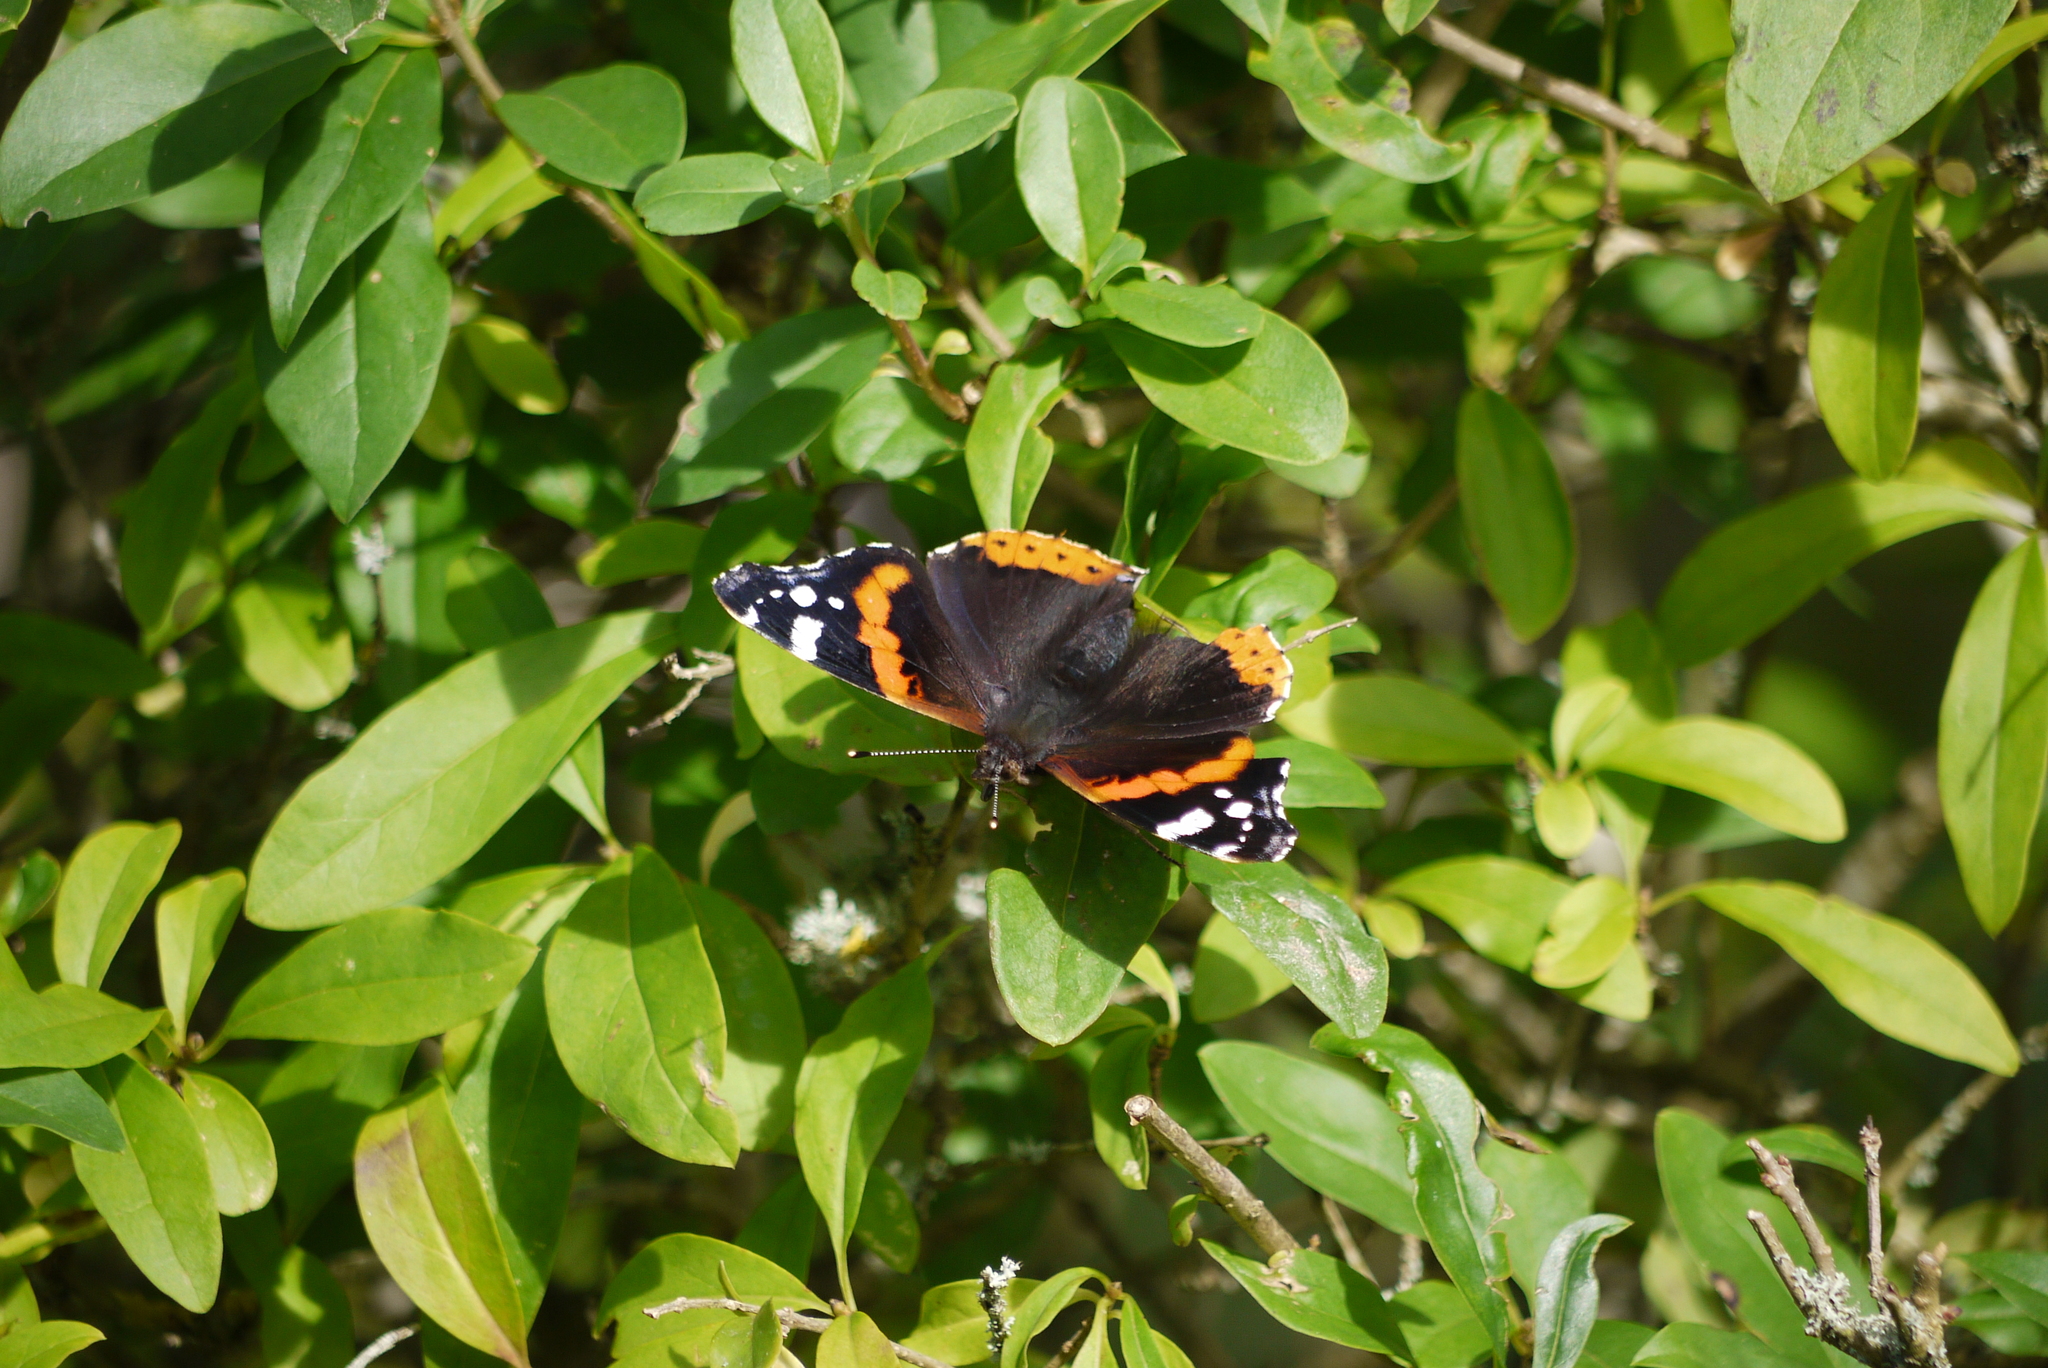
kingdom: Animalia
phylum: Arthropoda
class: Insecta
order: Lepidoptera
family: Nymphalidae
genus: Vanessa
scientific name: Vanessa atalanta
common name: Red admiral
